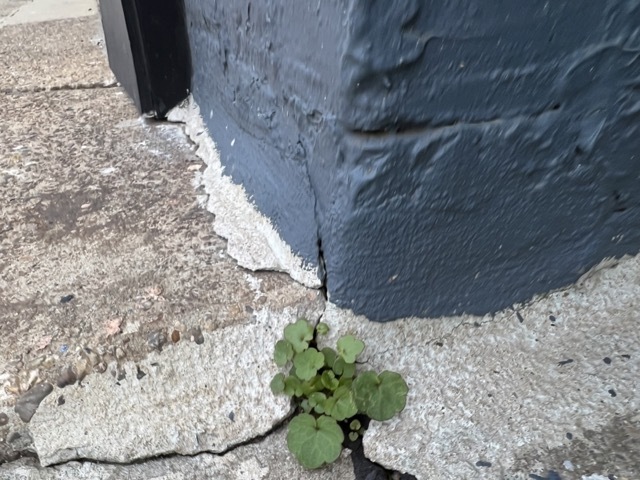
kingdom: Plantae
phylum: Tracheophyta
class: Magnoliopsida
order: Lamiales
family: Plantaginaceae
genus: Cymbalaria
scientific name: Cymbalaria muralis
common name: Ivy-leaved toadflax
